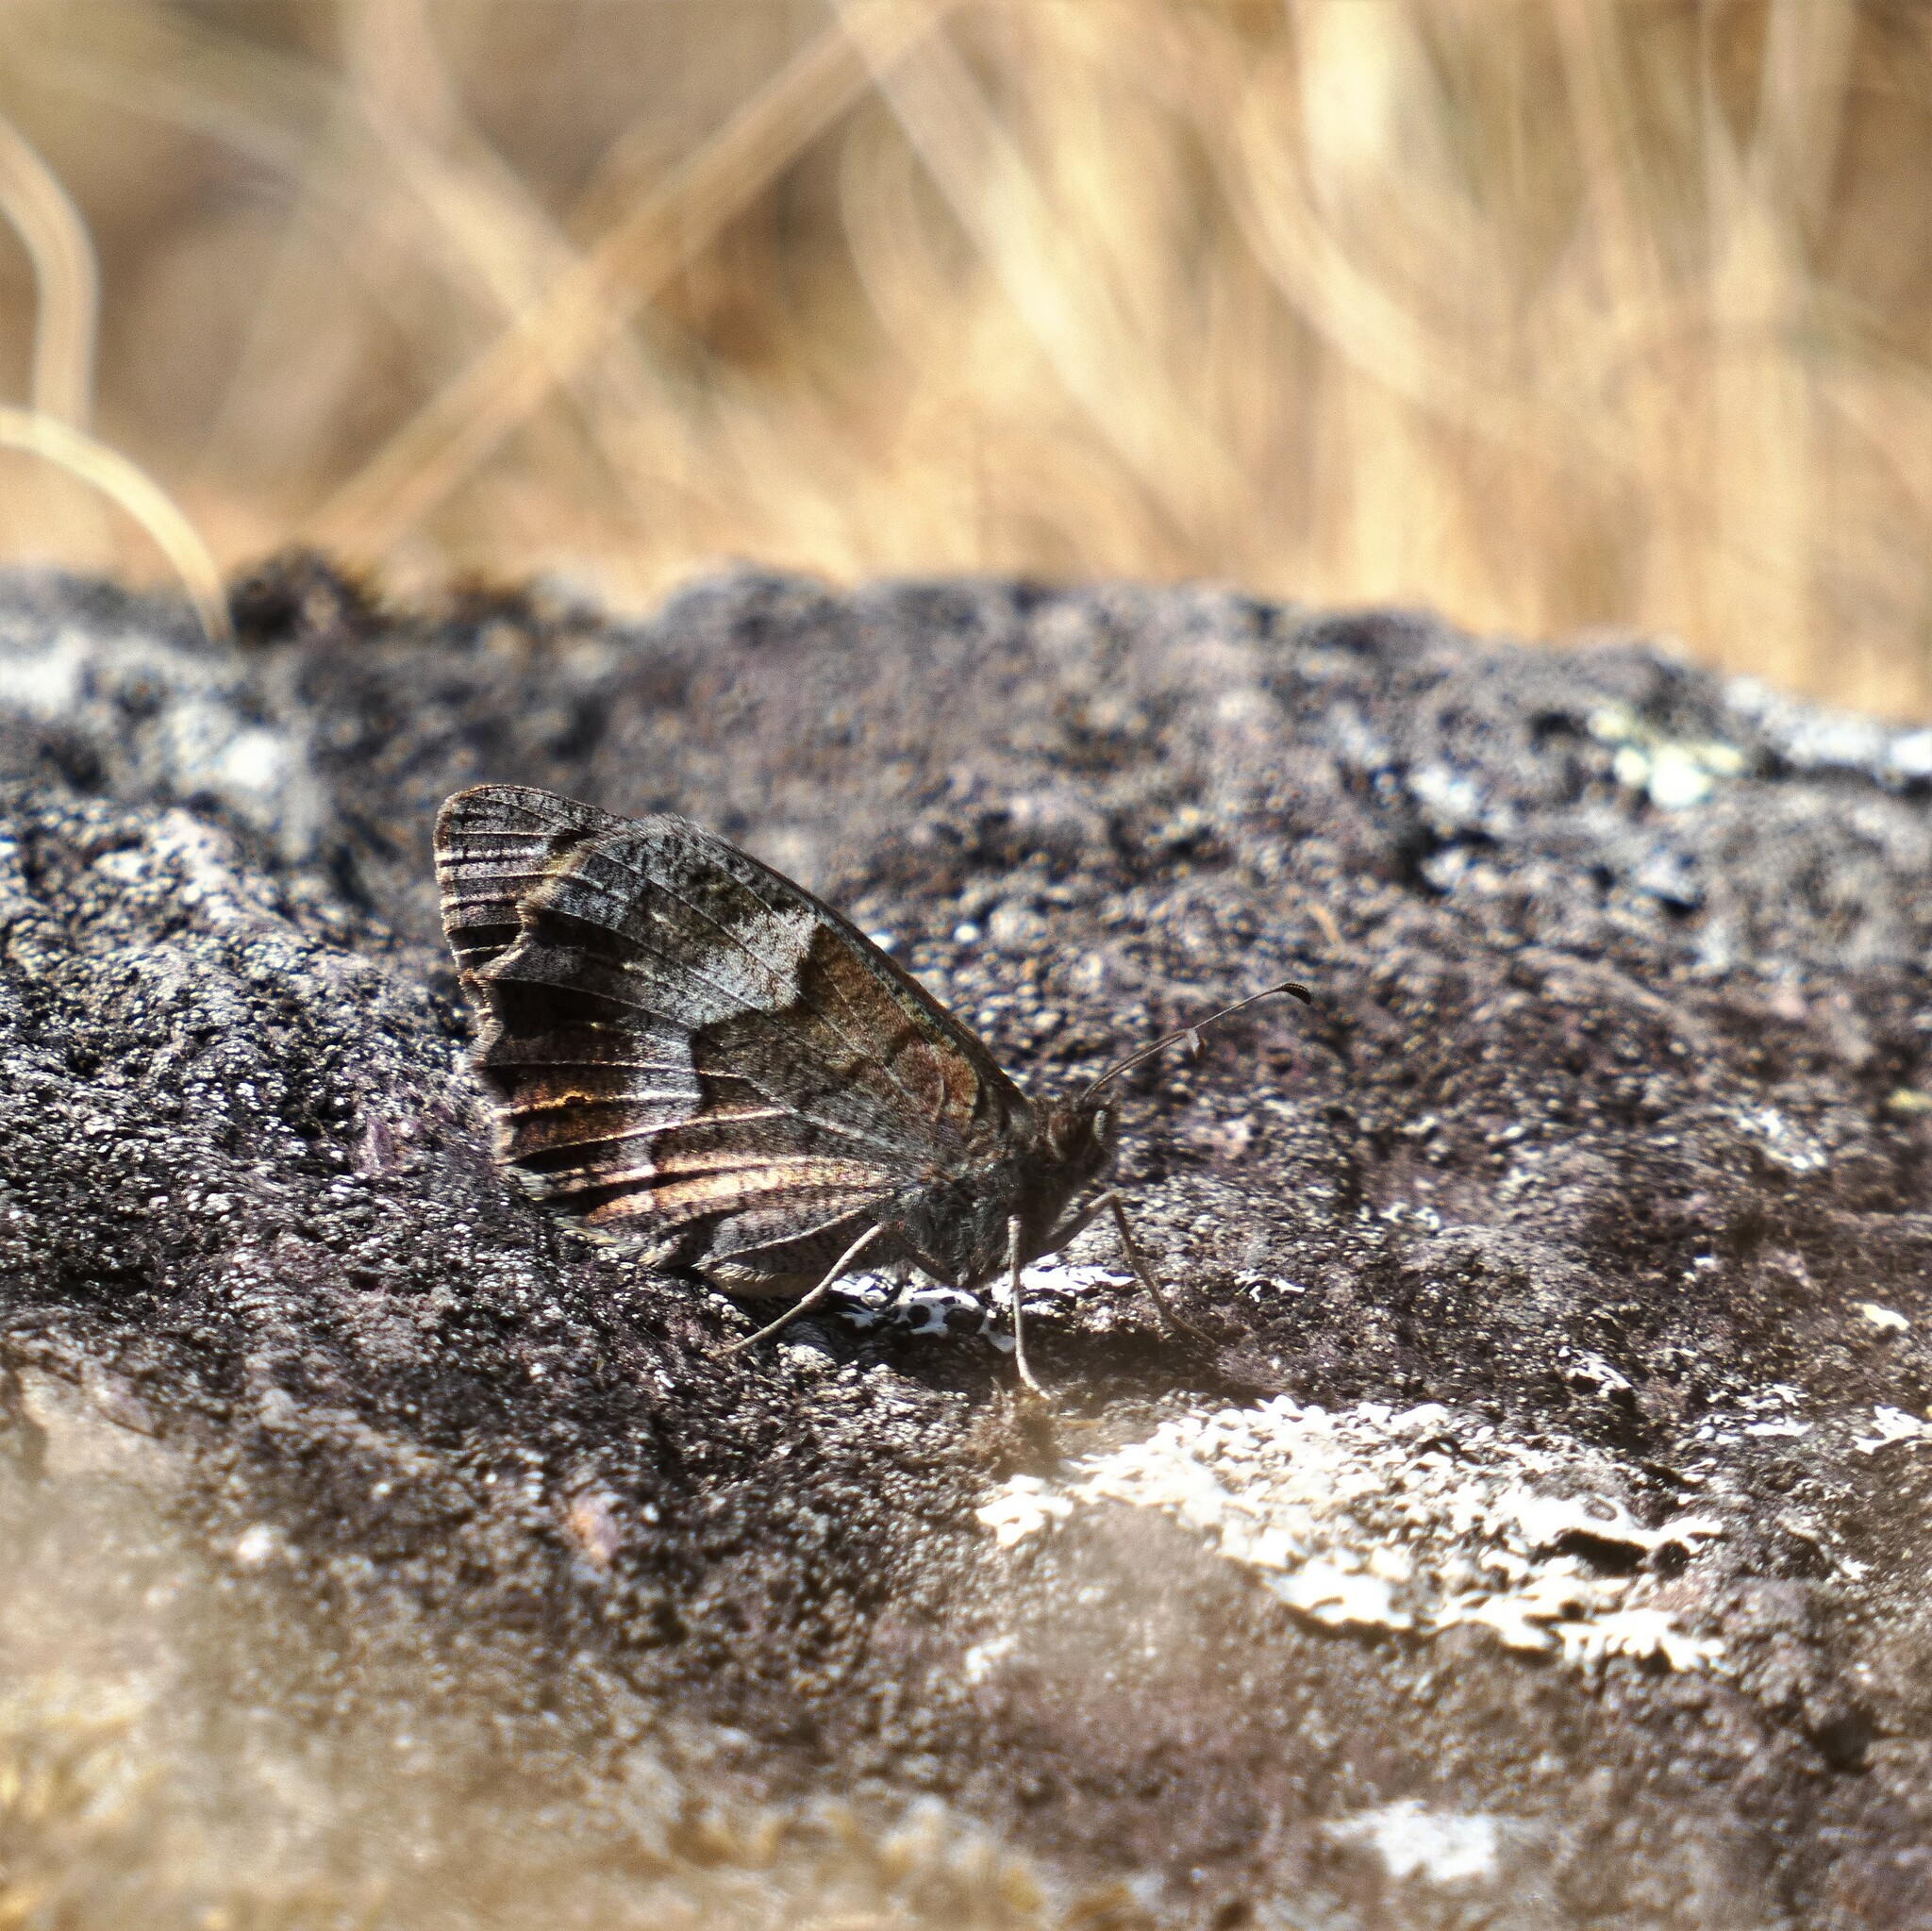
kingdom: Animalia
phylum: Arthropoda
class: Insecta
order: Lepidoptera
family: Nymphalidae
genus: Hipparchia
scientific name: Hipparchia statilinus
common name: Tree grayling
